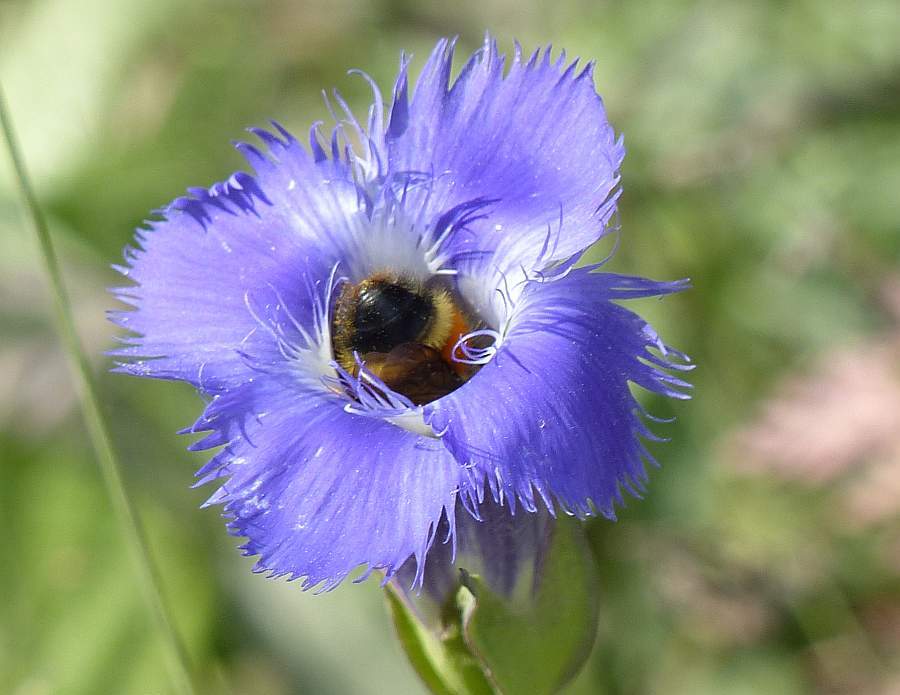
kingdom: Animalia
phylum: Arthropoda
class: Insecta
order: Hymenoptera
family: Apidae
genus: Bombus
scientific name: Bombus ternarius
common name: Tri-colored bumble bee
